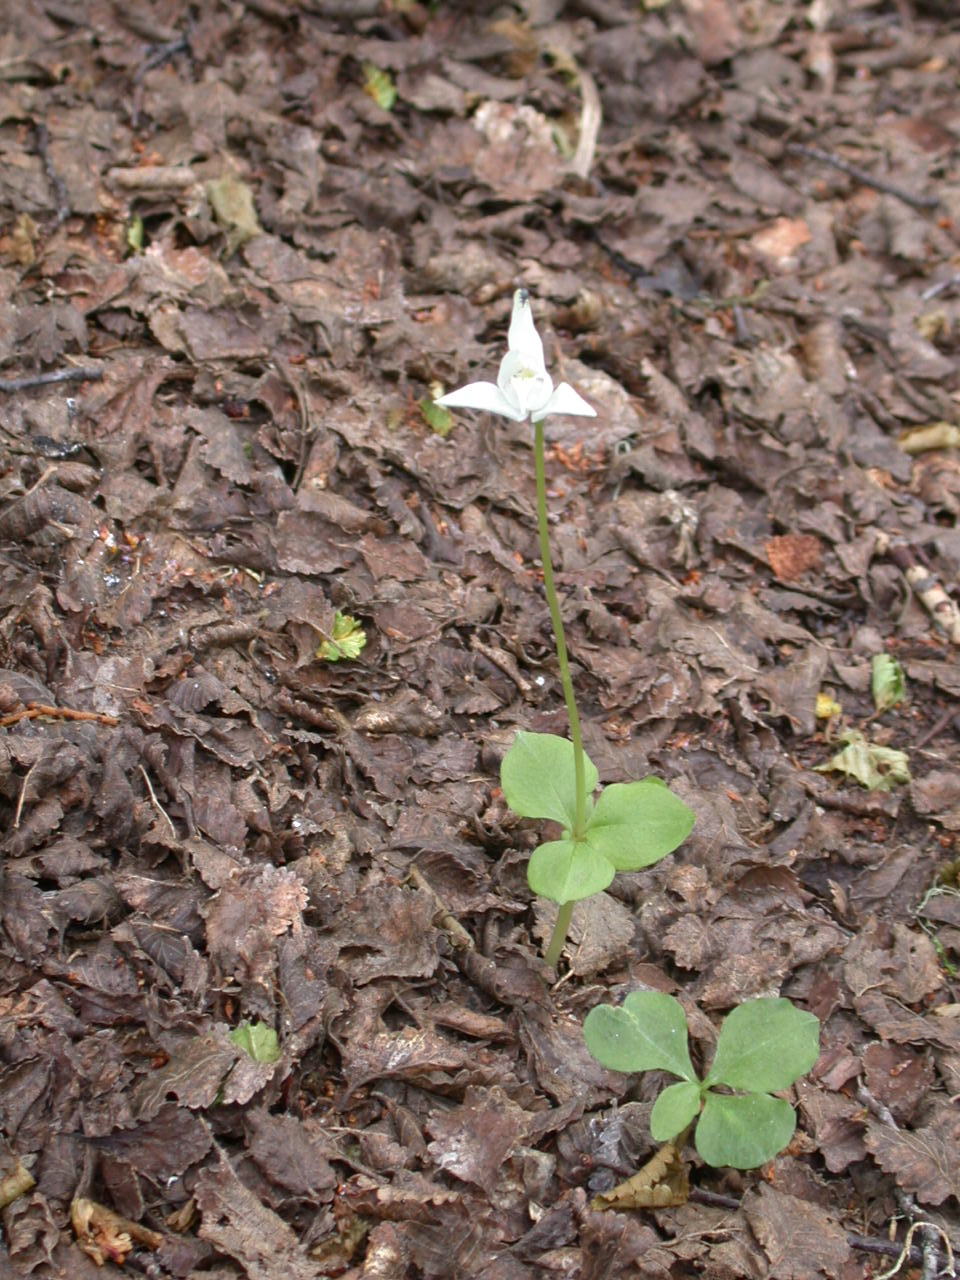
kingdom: Plantae
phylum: Tracheophyta
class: Liliopsida
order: Asparagales
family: Orchidaceae
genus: Codonorchis
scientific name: Codonorchis lessonii
